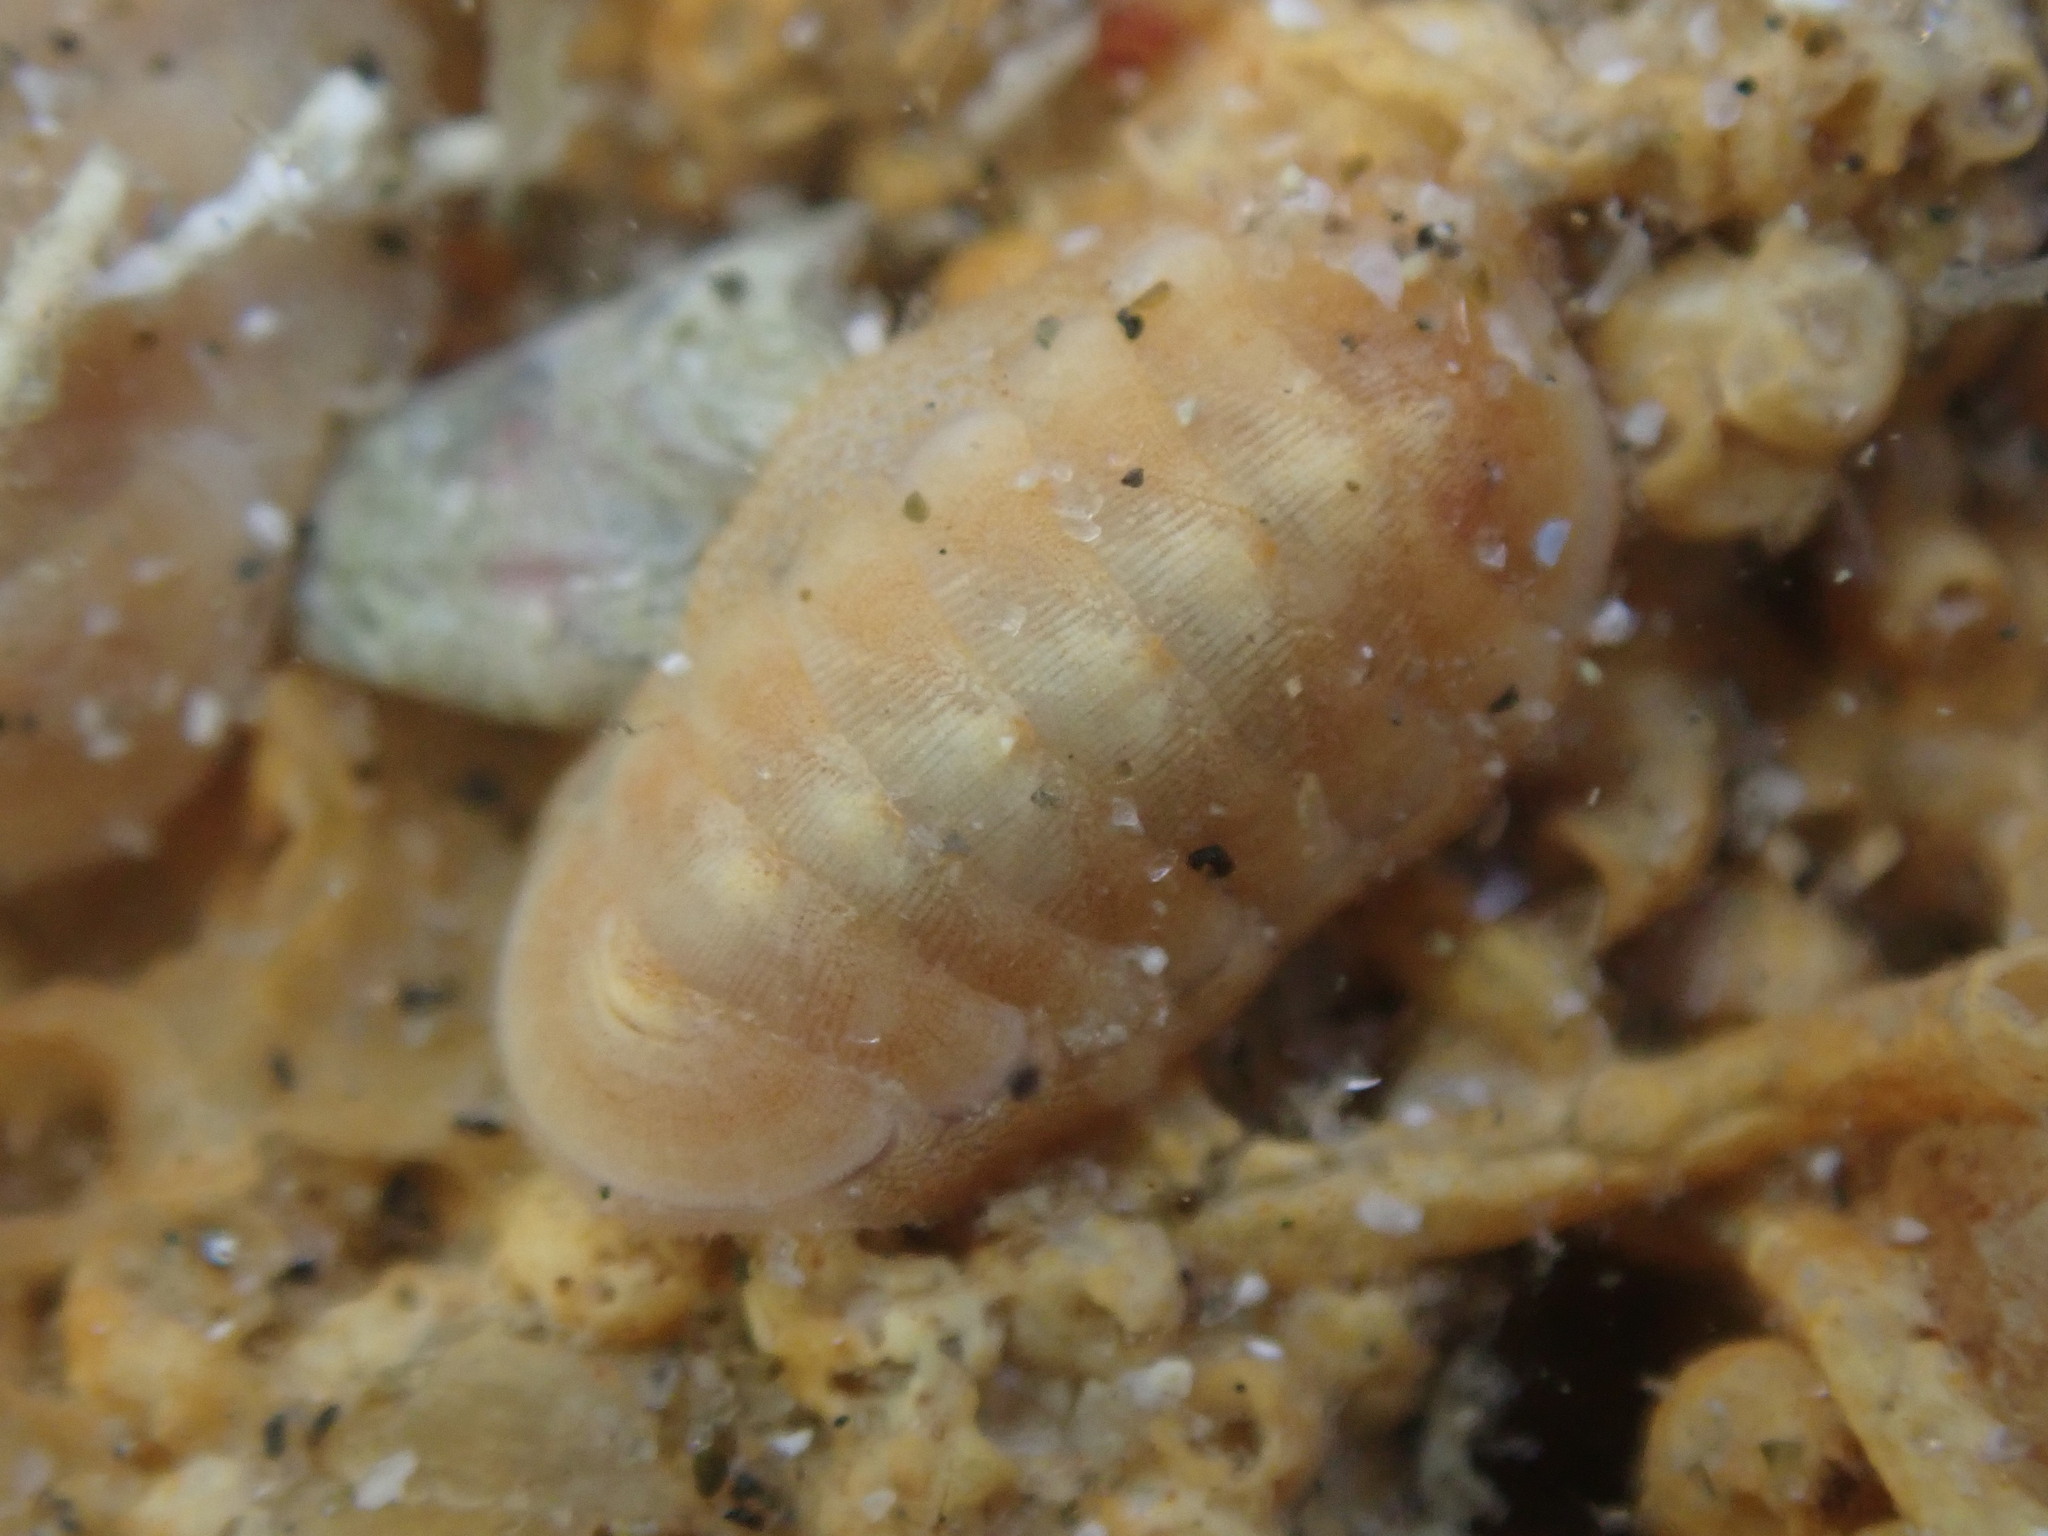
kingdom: Animalia
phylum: Mollusca
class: Polyplacophora
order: Lepidopleurida
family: Leptochitonidae
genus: Leptochiton
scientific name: Leptochiton inquinatus
